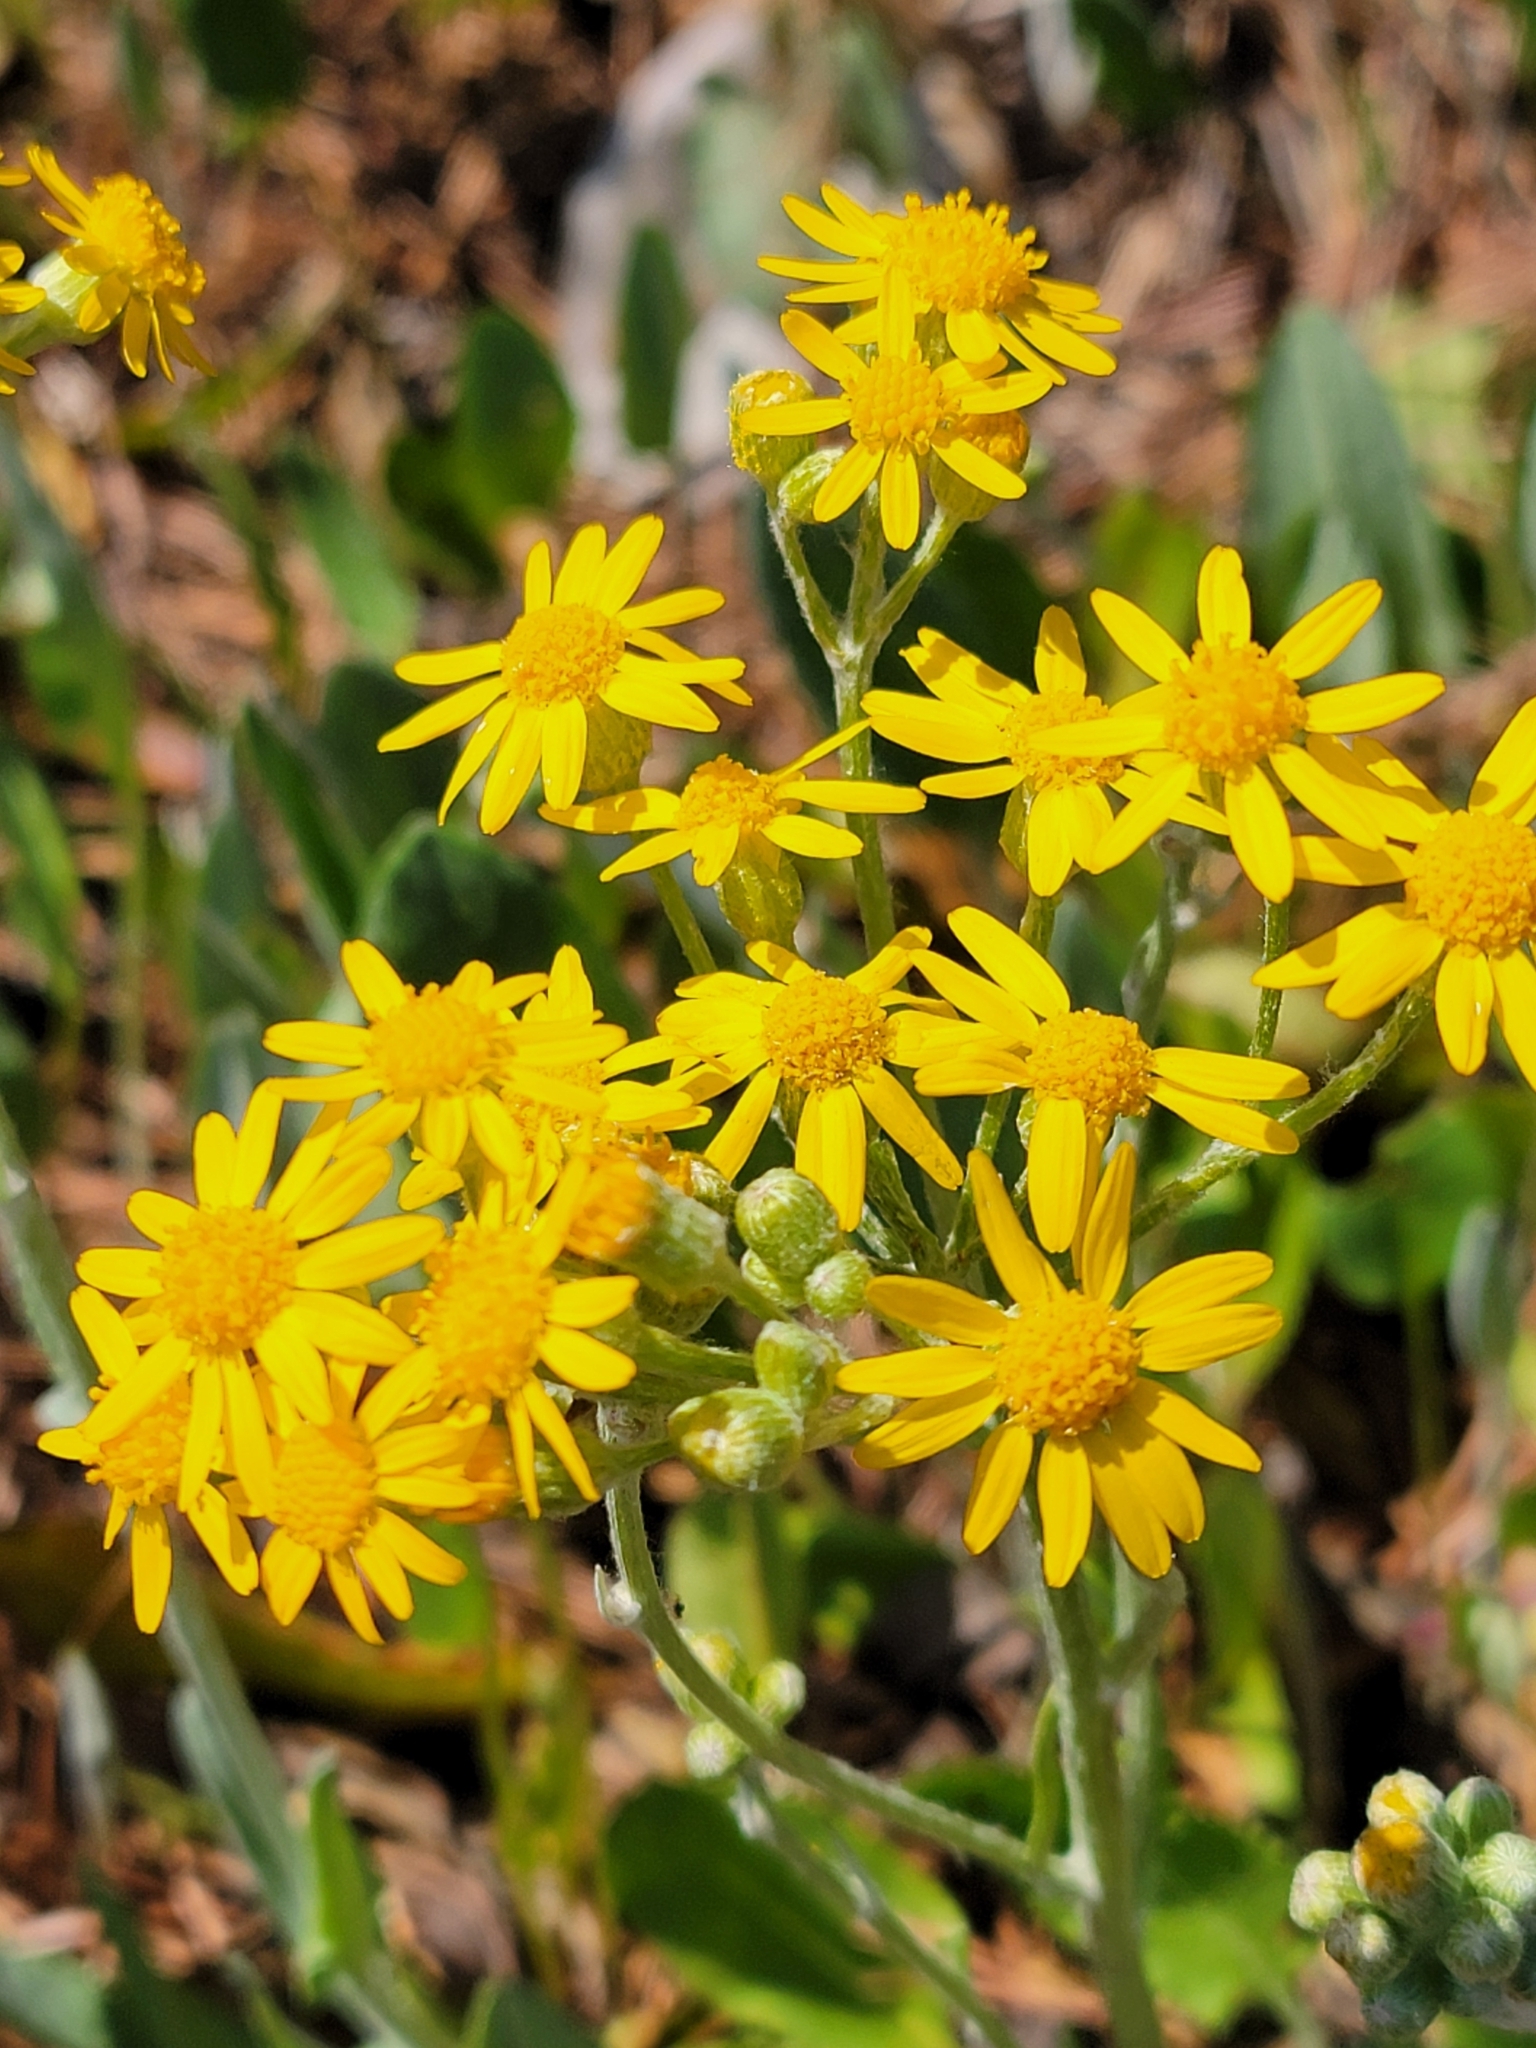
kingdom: Plantae
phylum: Tracheophyta
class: Magnoliopsida
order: Asterales
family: Asteraceae
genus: Packera
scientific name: Packera dubia
